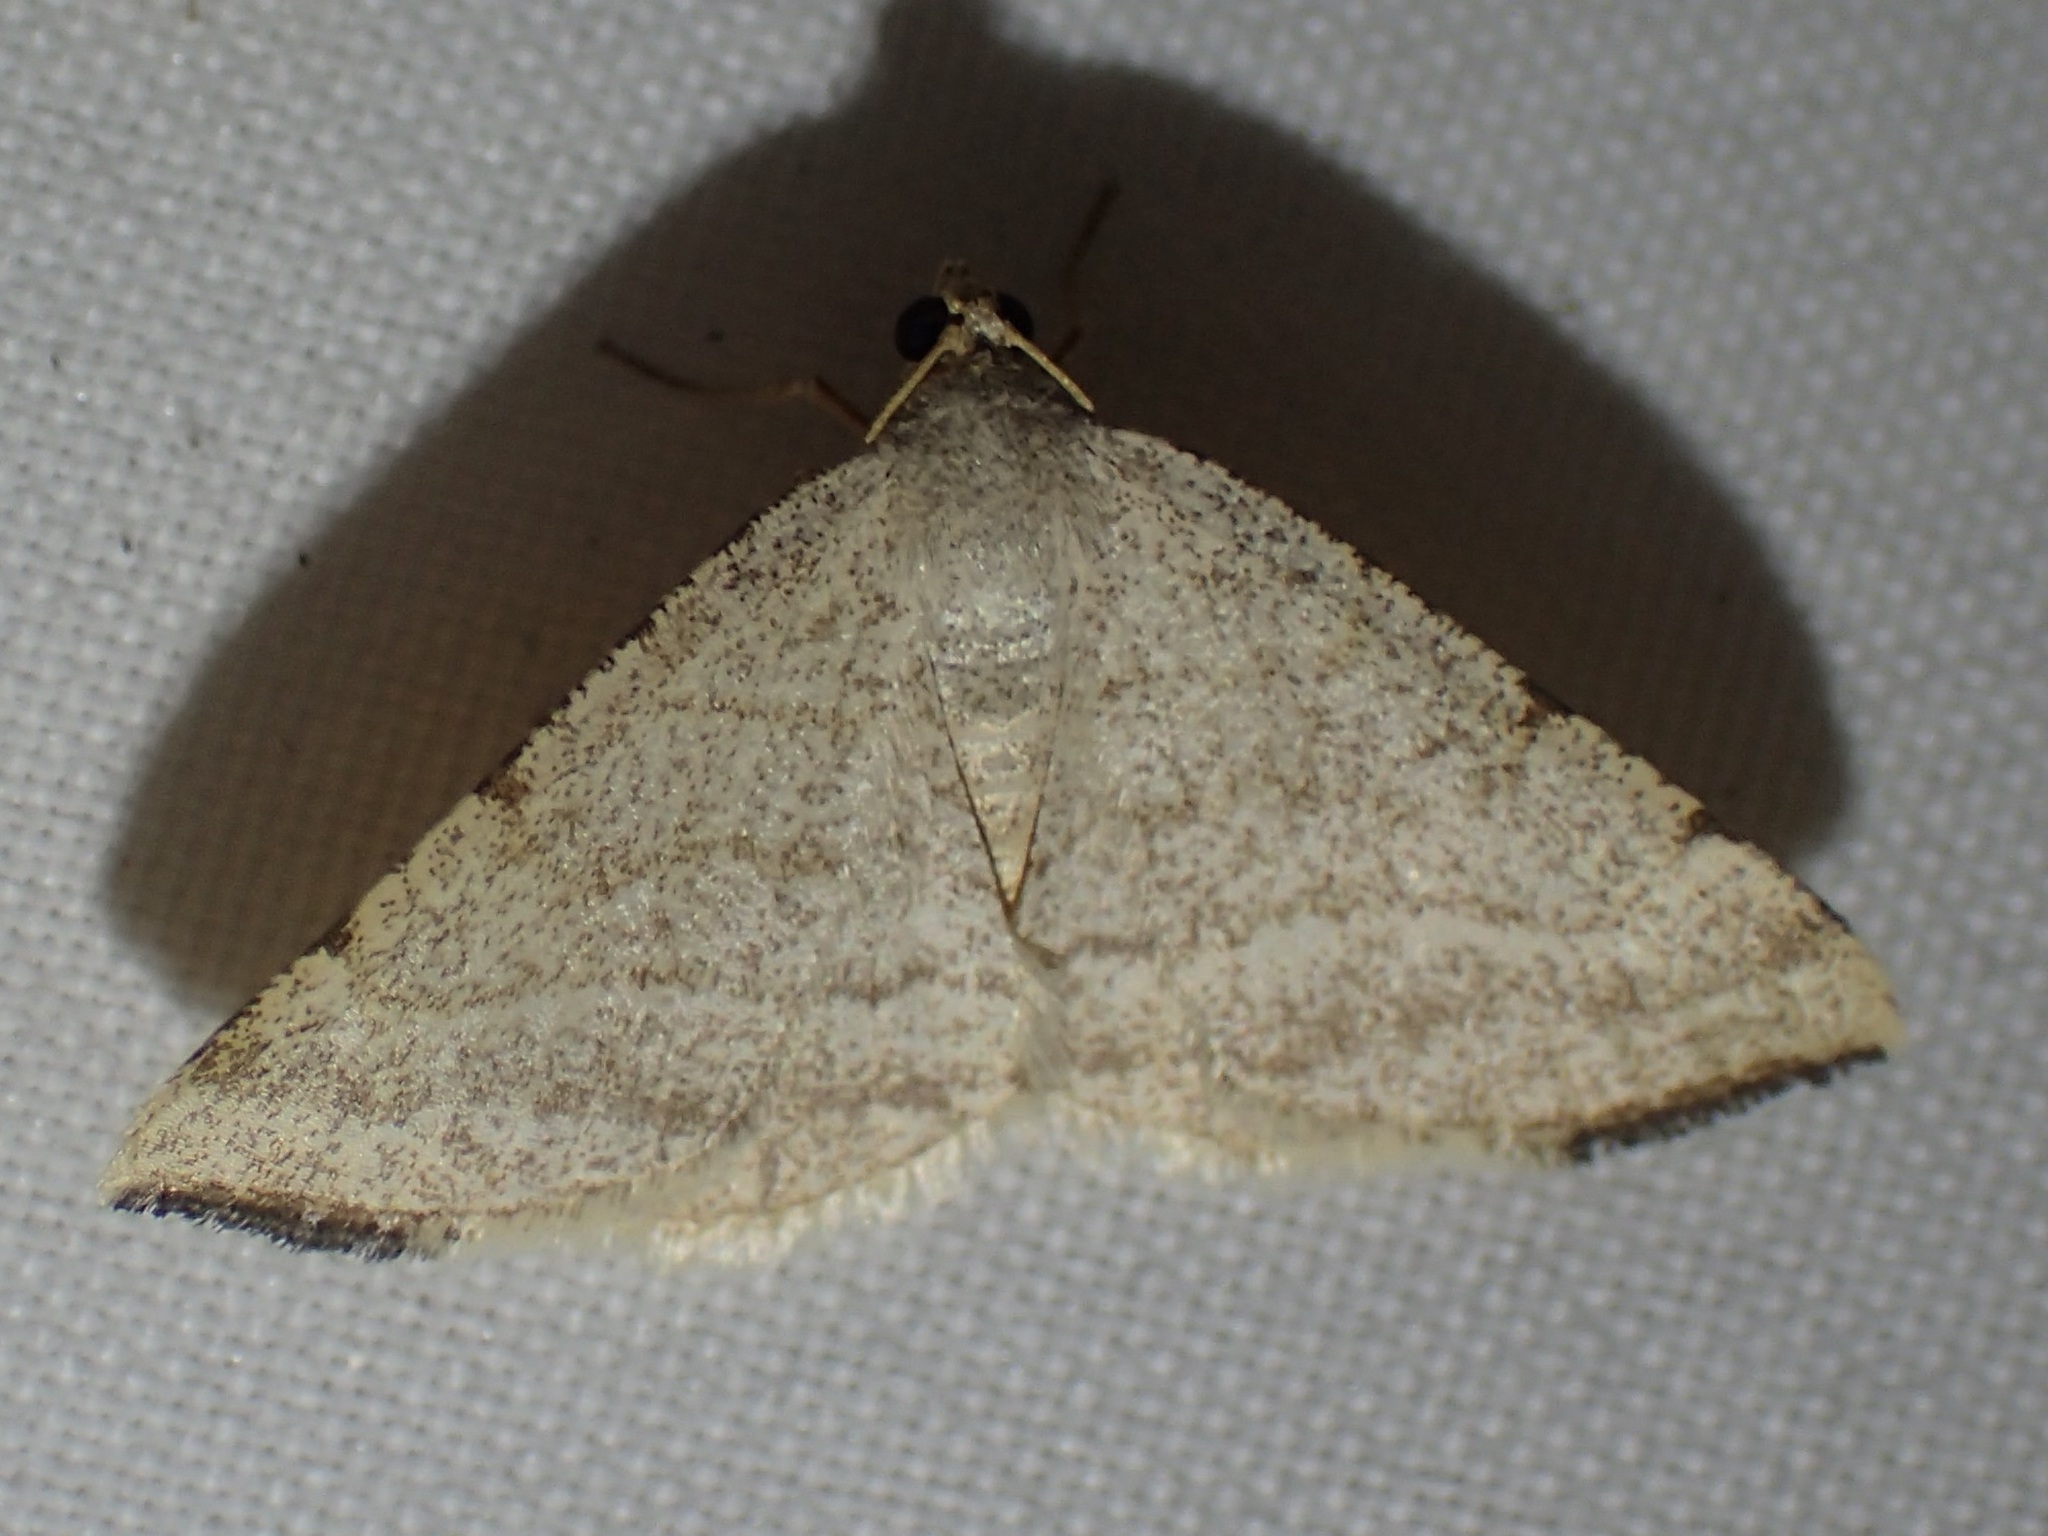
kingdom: Animalia
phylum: Arthropoda
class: Insecta
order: Lepidoptera
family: Geometridae
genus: Macaria
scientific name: Macaria octolineata
